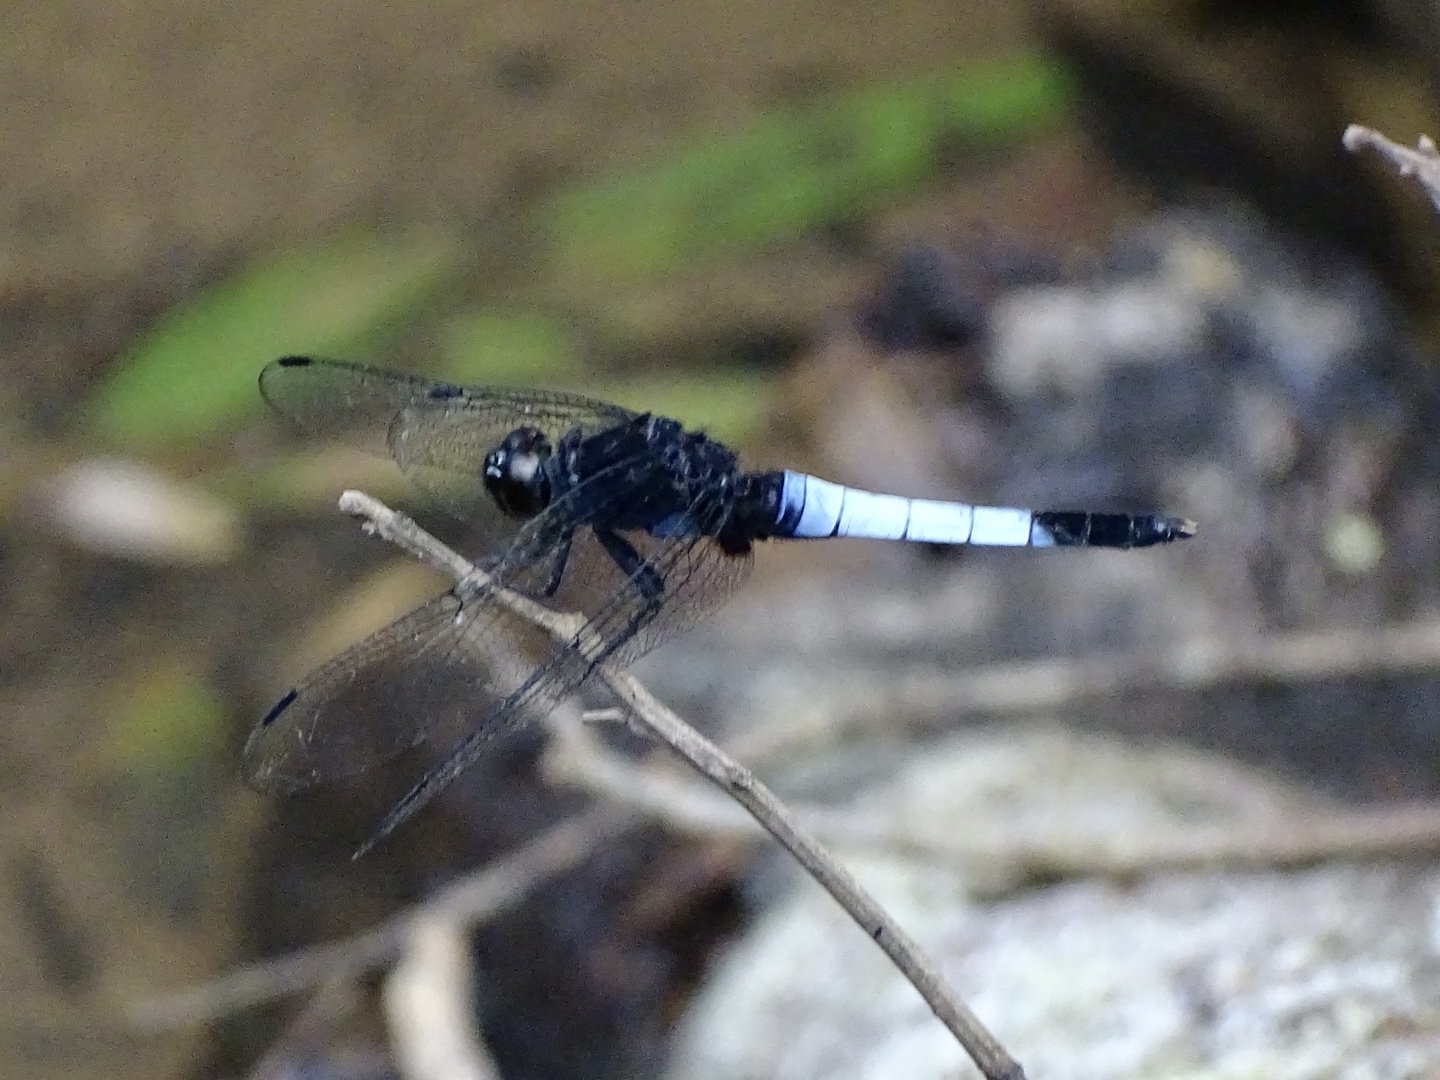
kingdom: Animalia
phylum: Arthropoda
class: Insecta
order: Odonata
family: Libellulidae
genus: Orthetrum
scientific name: Orthetrum triangulare
